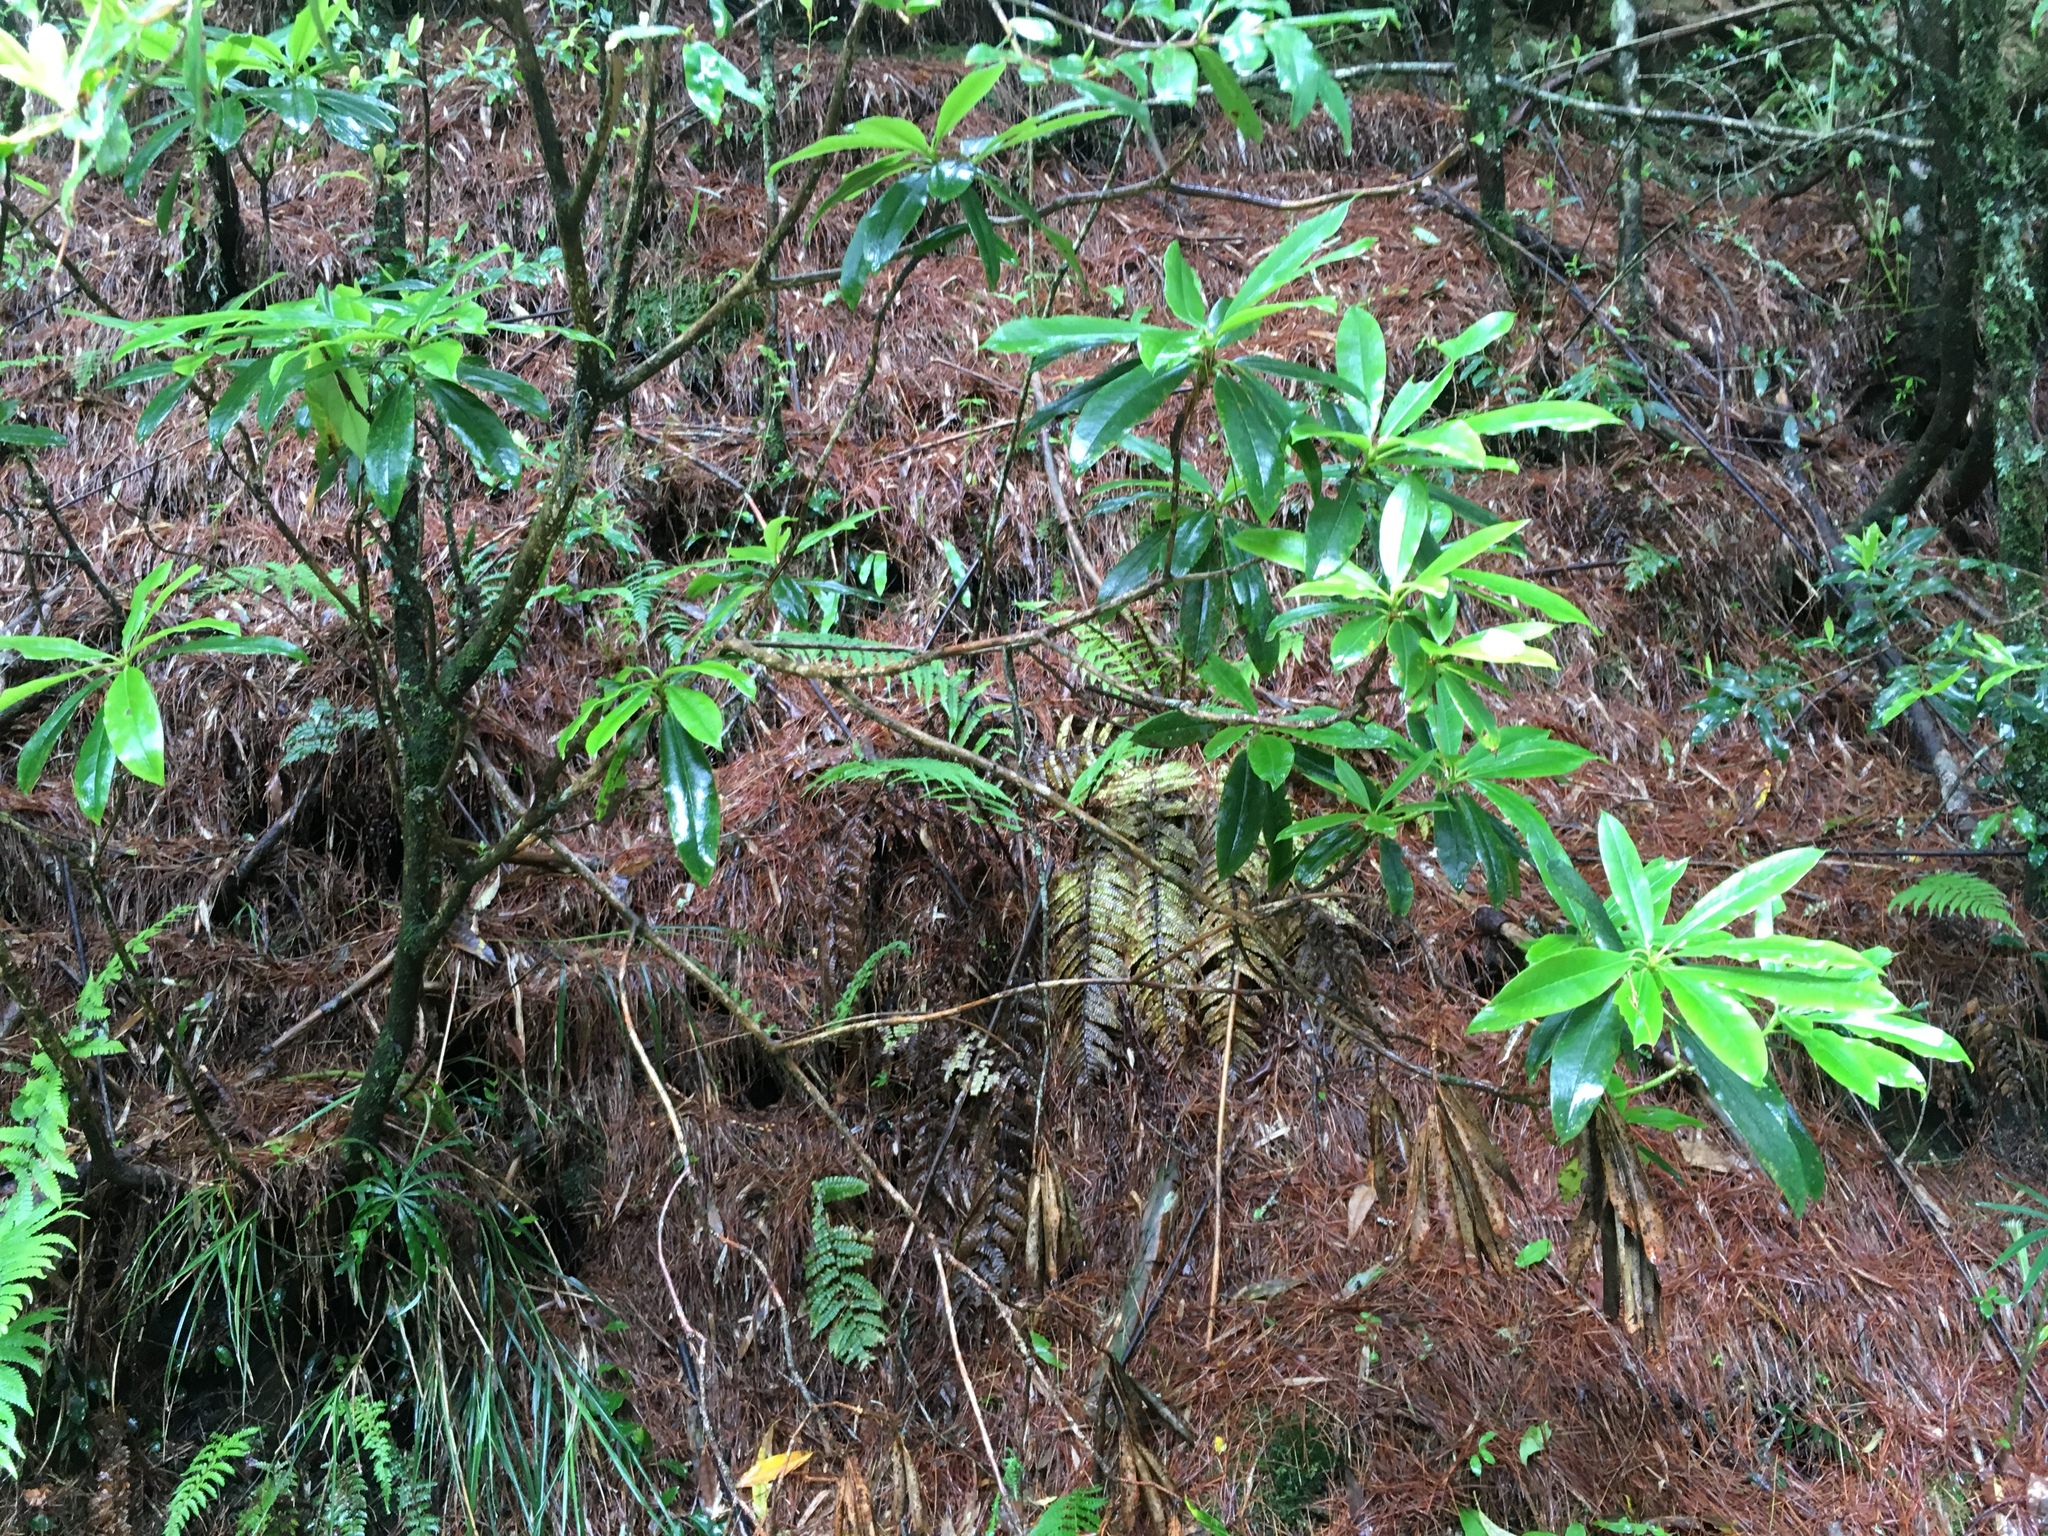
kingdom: Plantae
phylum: Tracheophyta
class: Magnoliopsida
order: Ericales
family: Ericaceae
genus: Rhododendron
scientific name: Rhododendron formosanum
